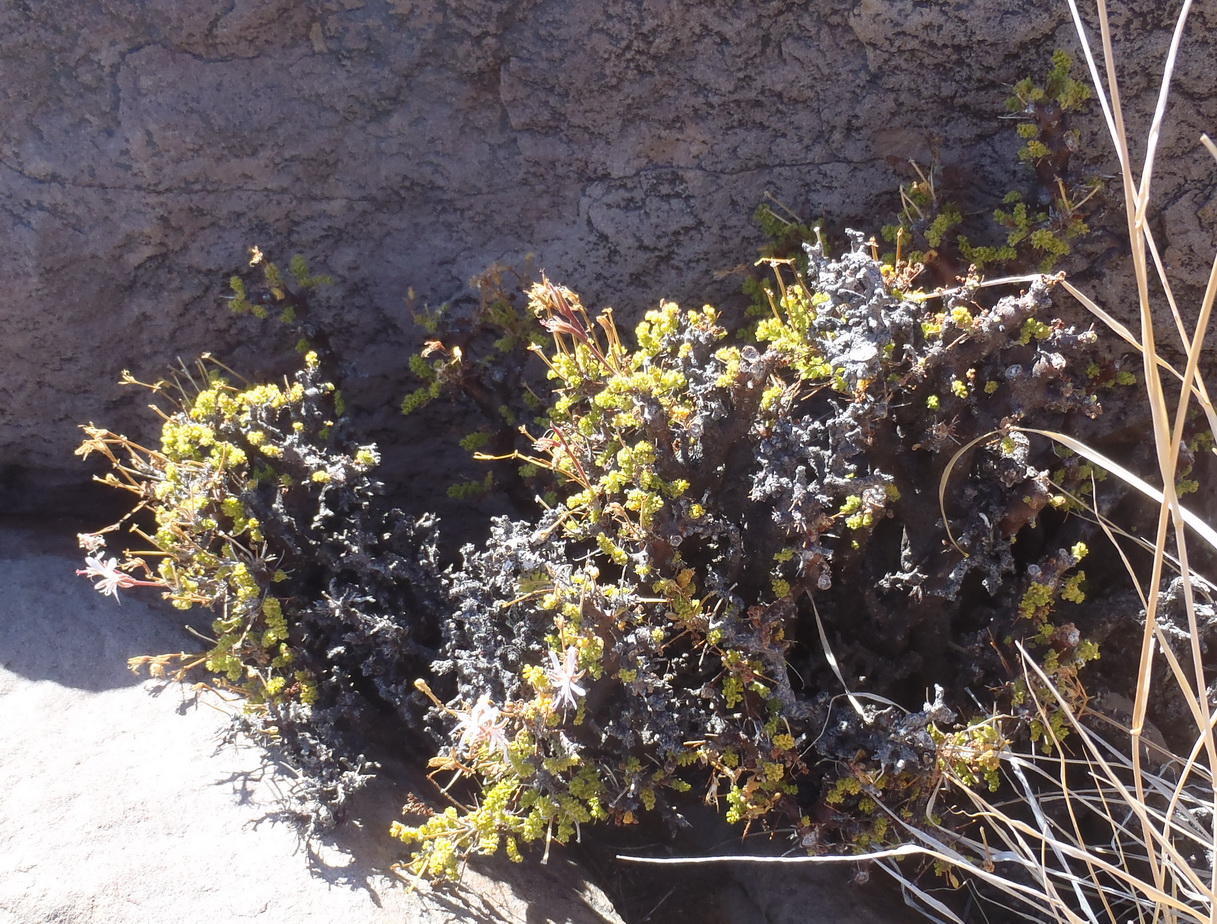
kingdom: Plantae
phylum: Tracheophyta
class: Magnoliopsida
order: Geraniales
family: Geraniaceae
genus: Pelargonium
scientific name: Pelargonium alternans
